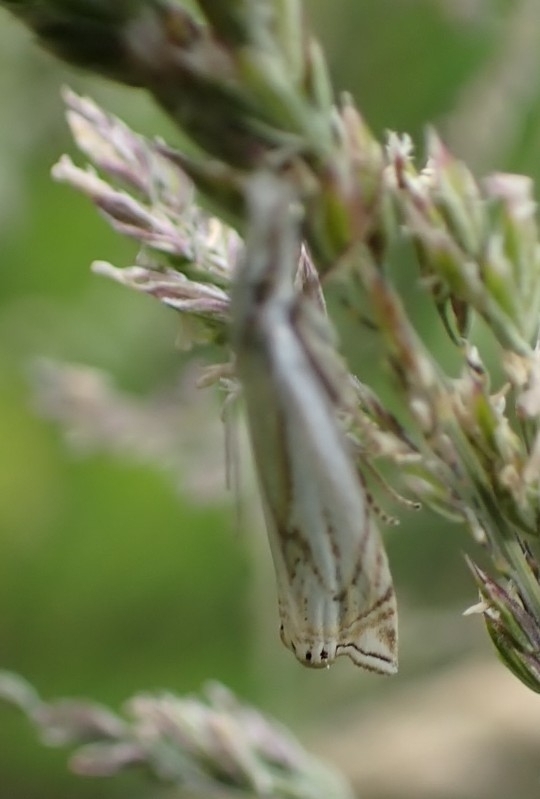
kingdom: Animalia
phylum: Arthropoda
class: Insecta
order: Lepidoptera
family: Crambidae
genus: Crambus
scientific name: Crambus nemorella
